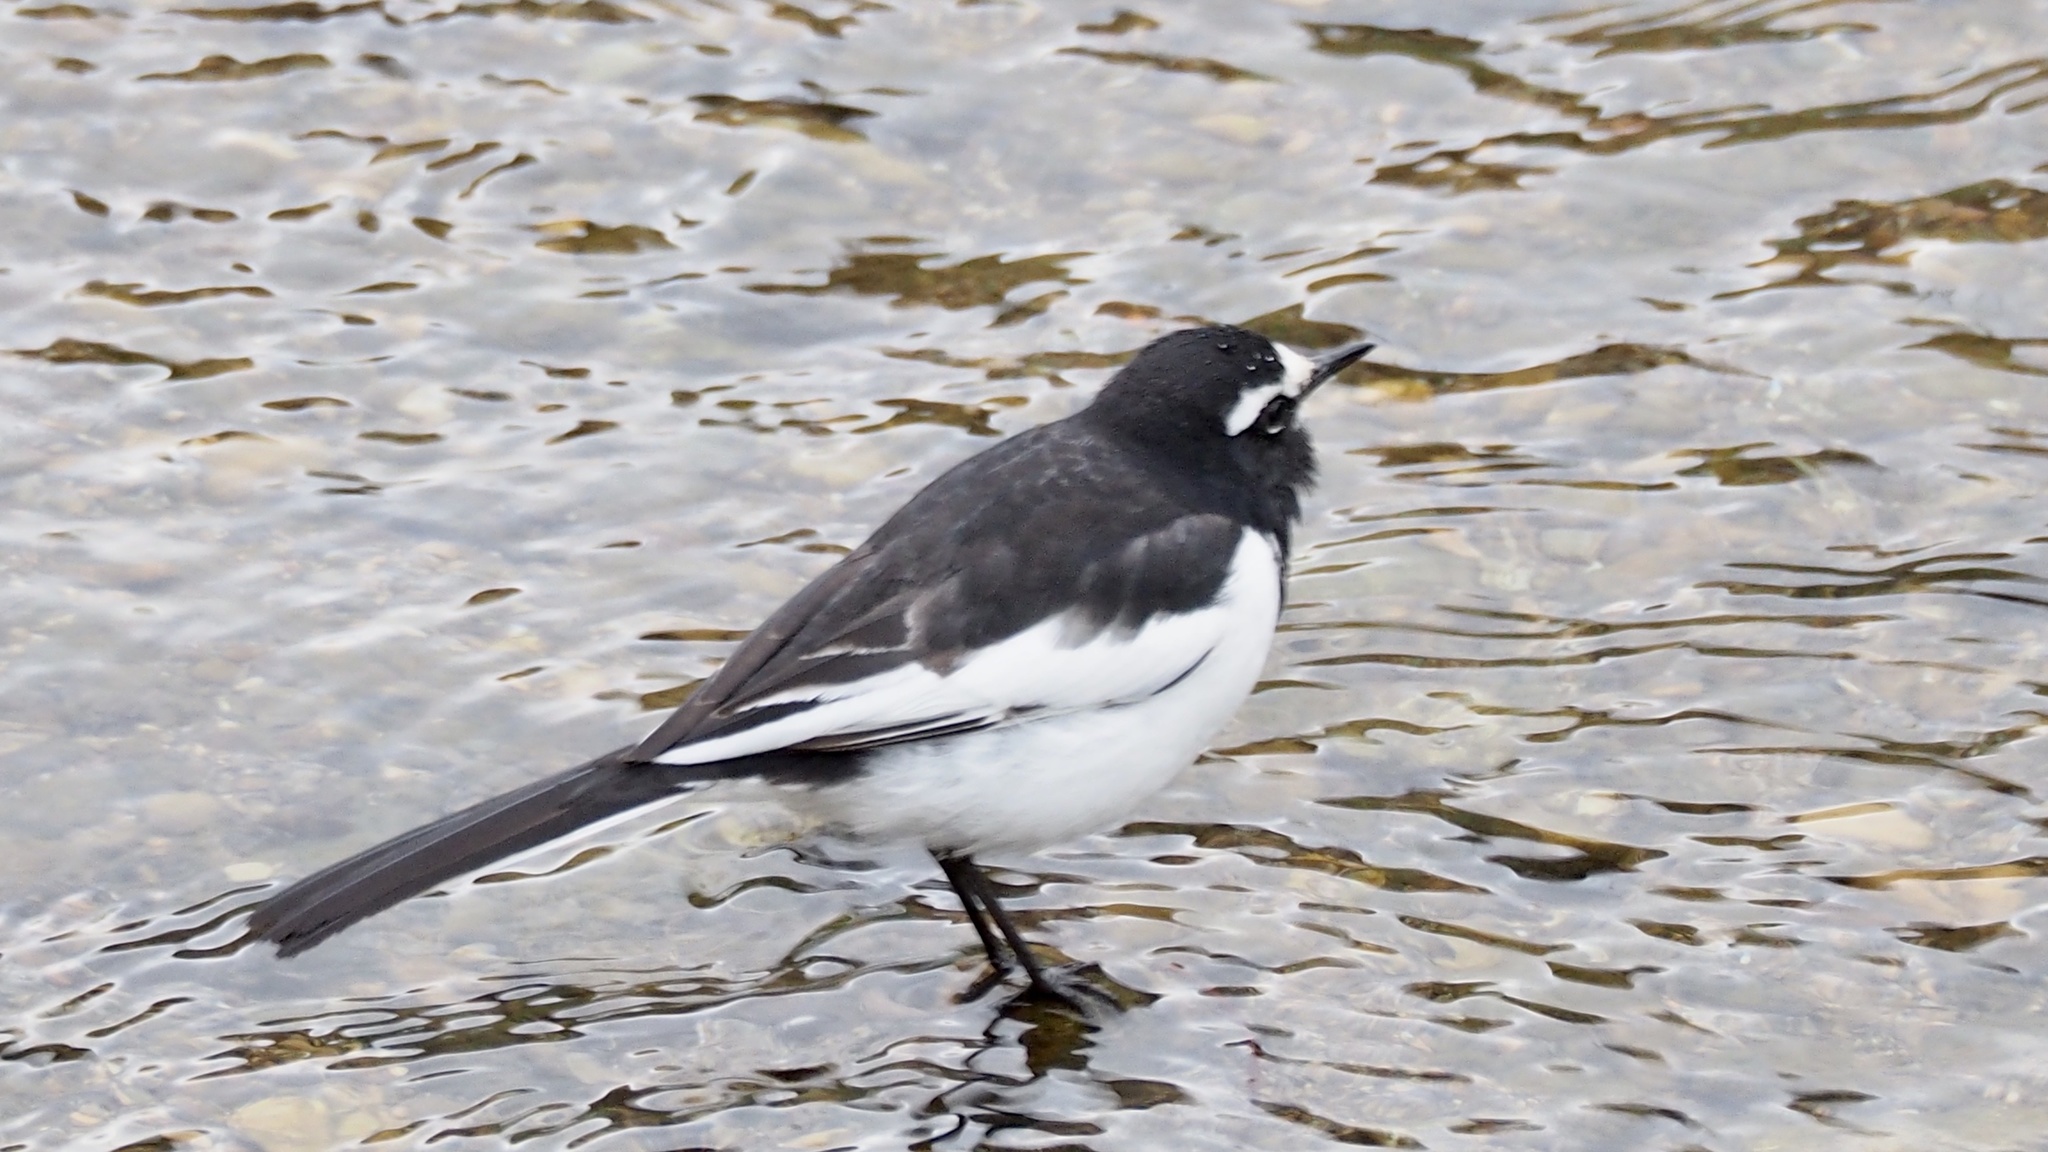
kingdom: Animalia
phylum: Chordata
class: Aves
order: Passeriformes
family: Motacillidae
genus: Motacilla
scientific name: Motacilla grandis
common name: Japanese wagtail
